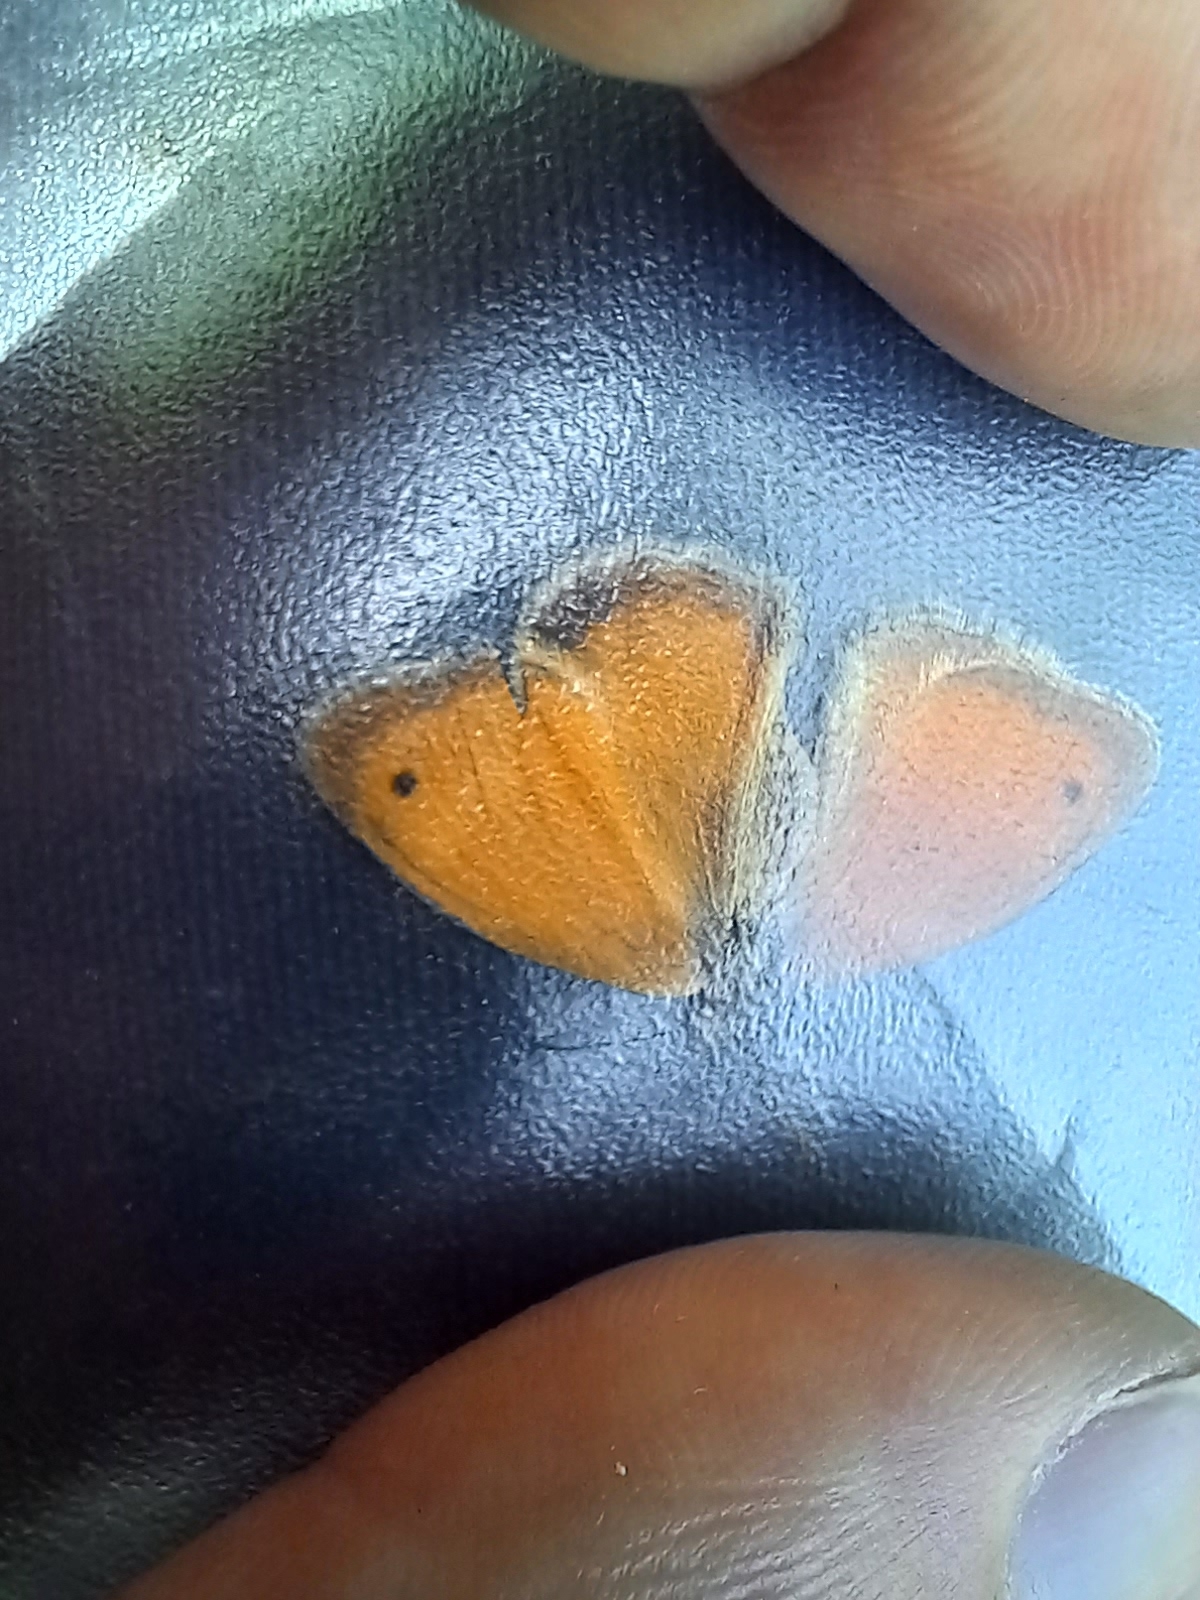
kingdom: Animalia
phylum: Arthropoda
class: Insecta
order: Lepidoptera
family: Nymphalidae
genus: Coenonympha
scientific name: Coenonympha pamphilus
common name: Small heath
